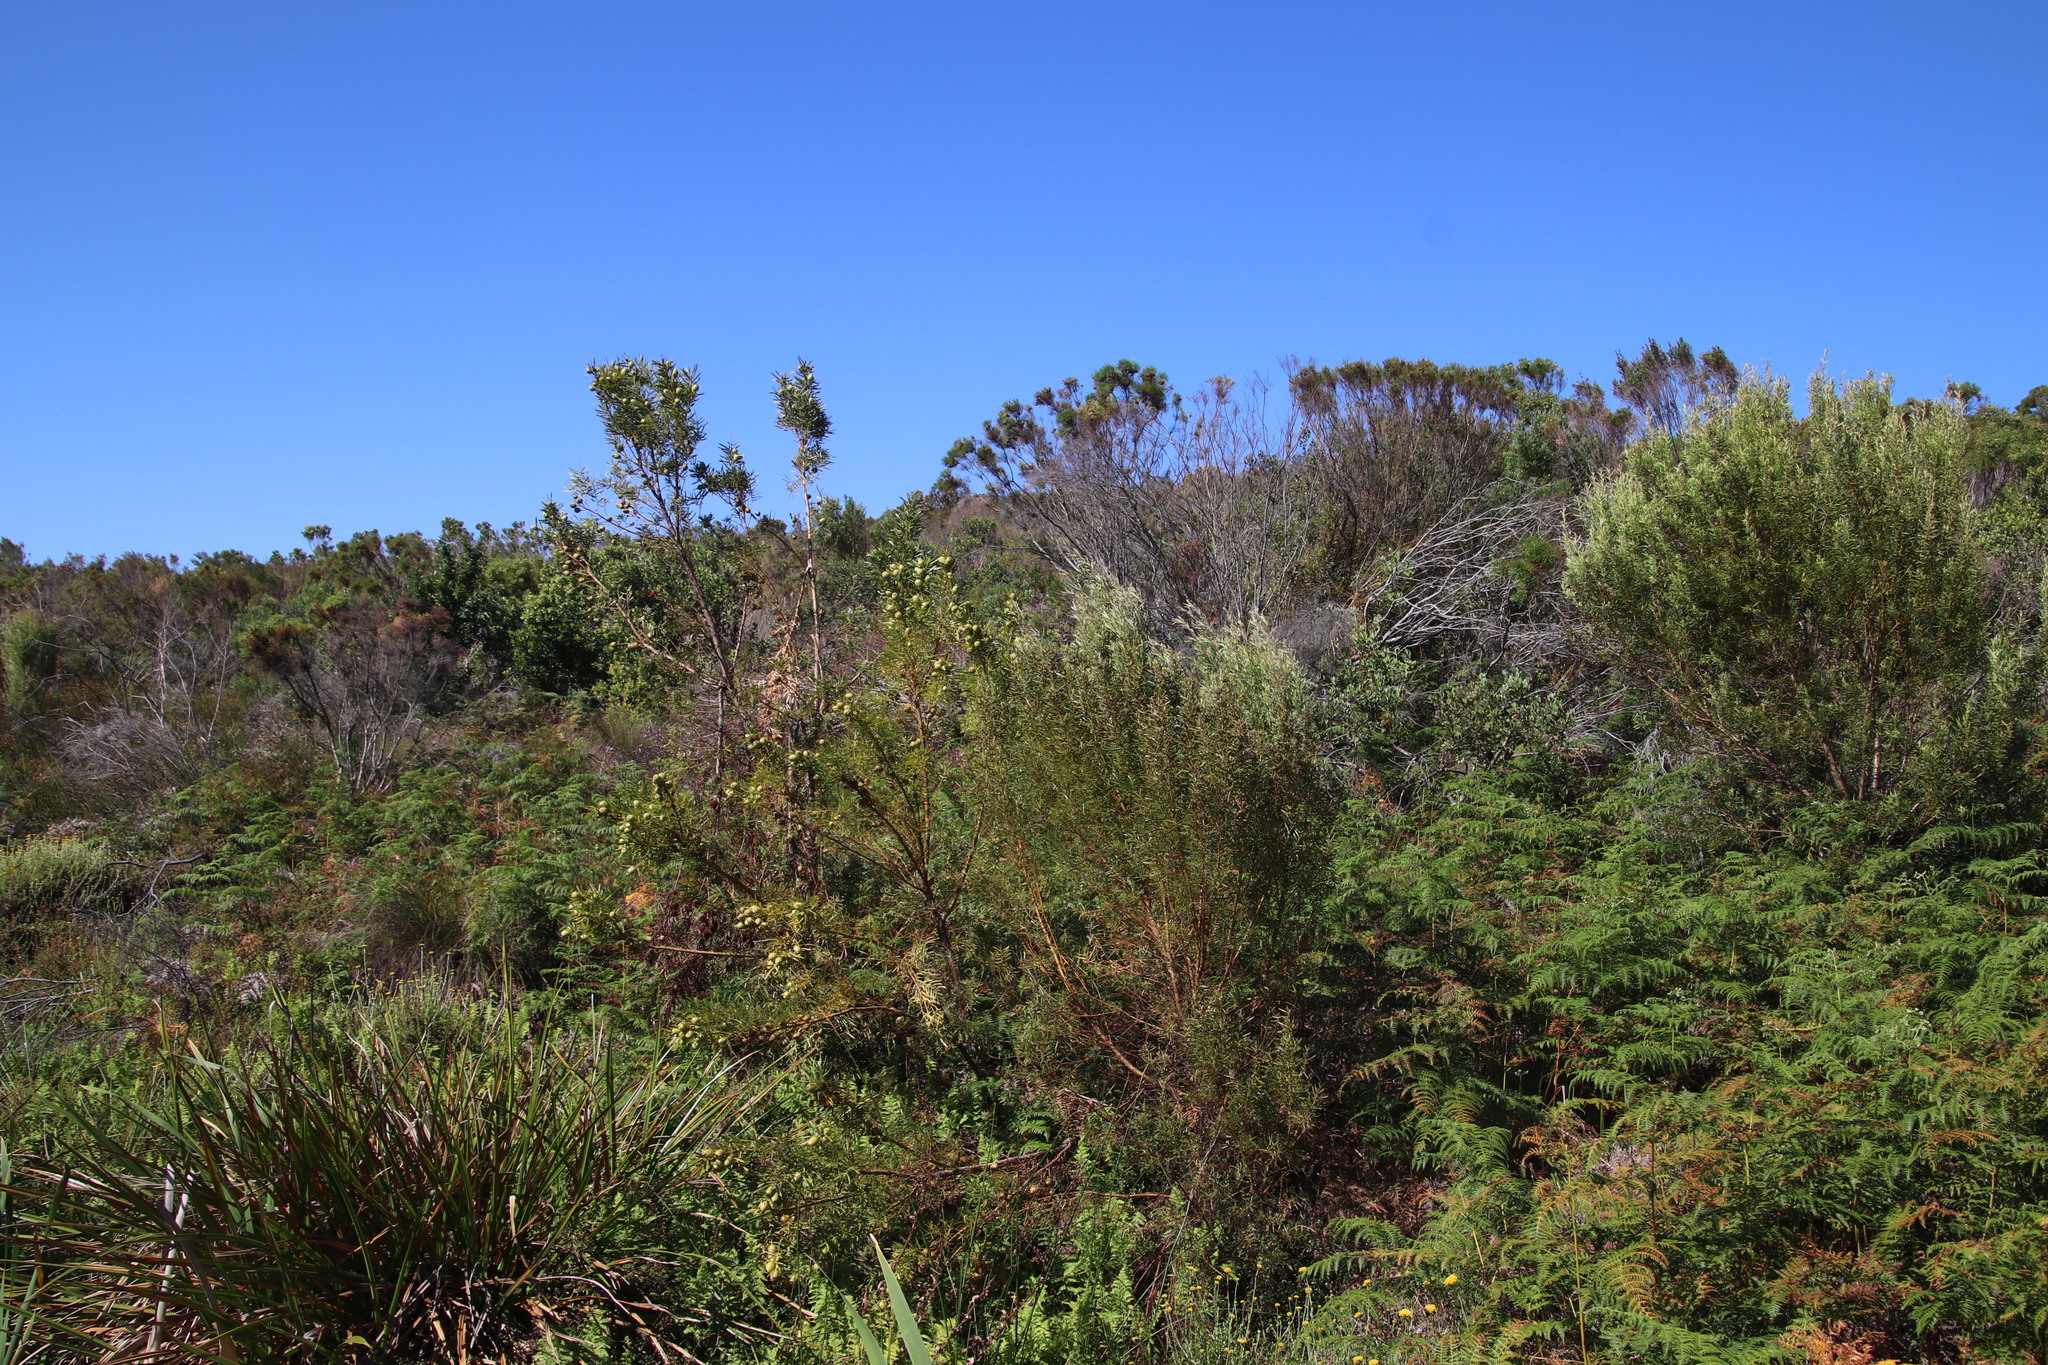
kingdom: Plantae
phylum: Tracheophyta
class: Magnoliopsida
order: Proteales
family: Proteaceae
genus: Leucadendron
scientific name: Leucadendron salicifolium
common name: Common stream conebush
